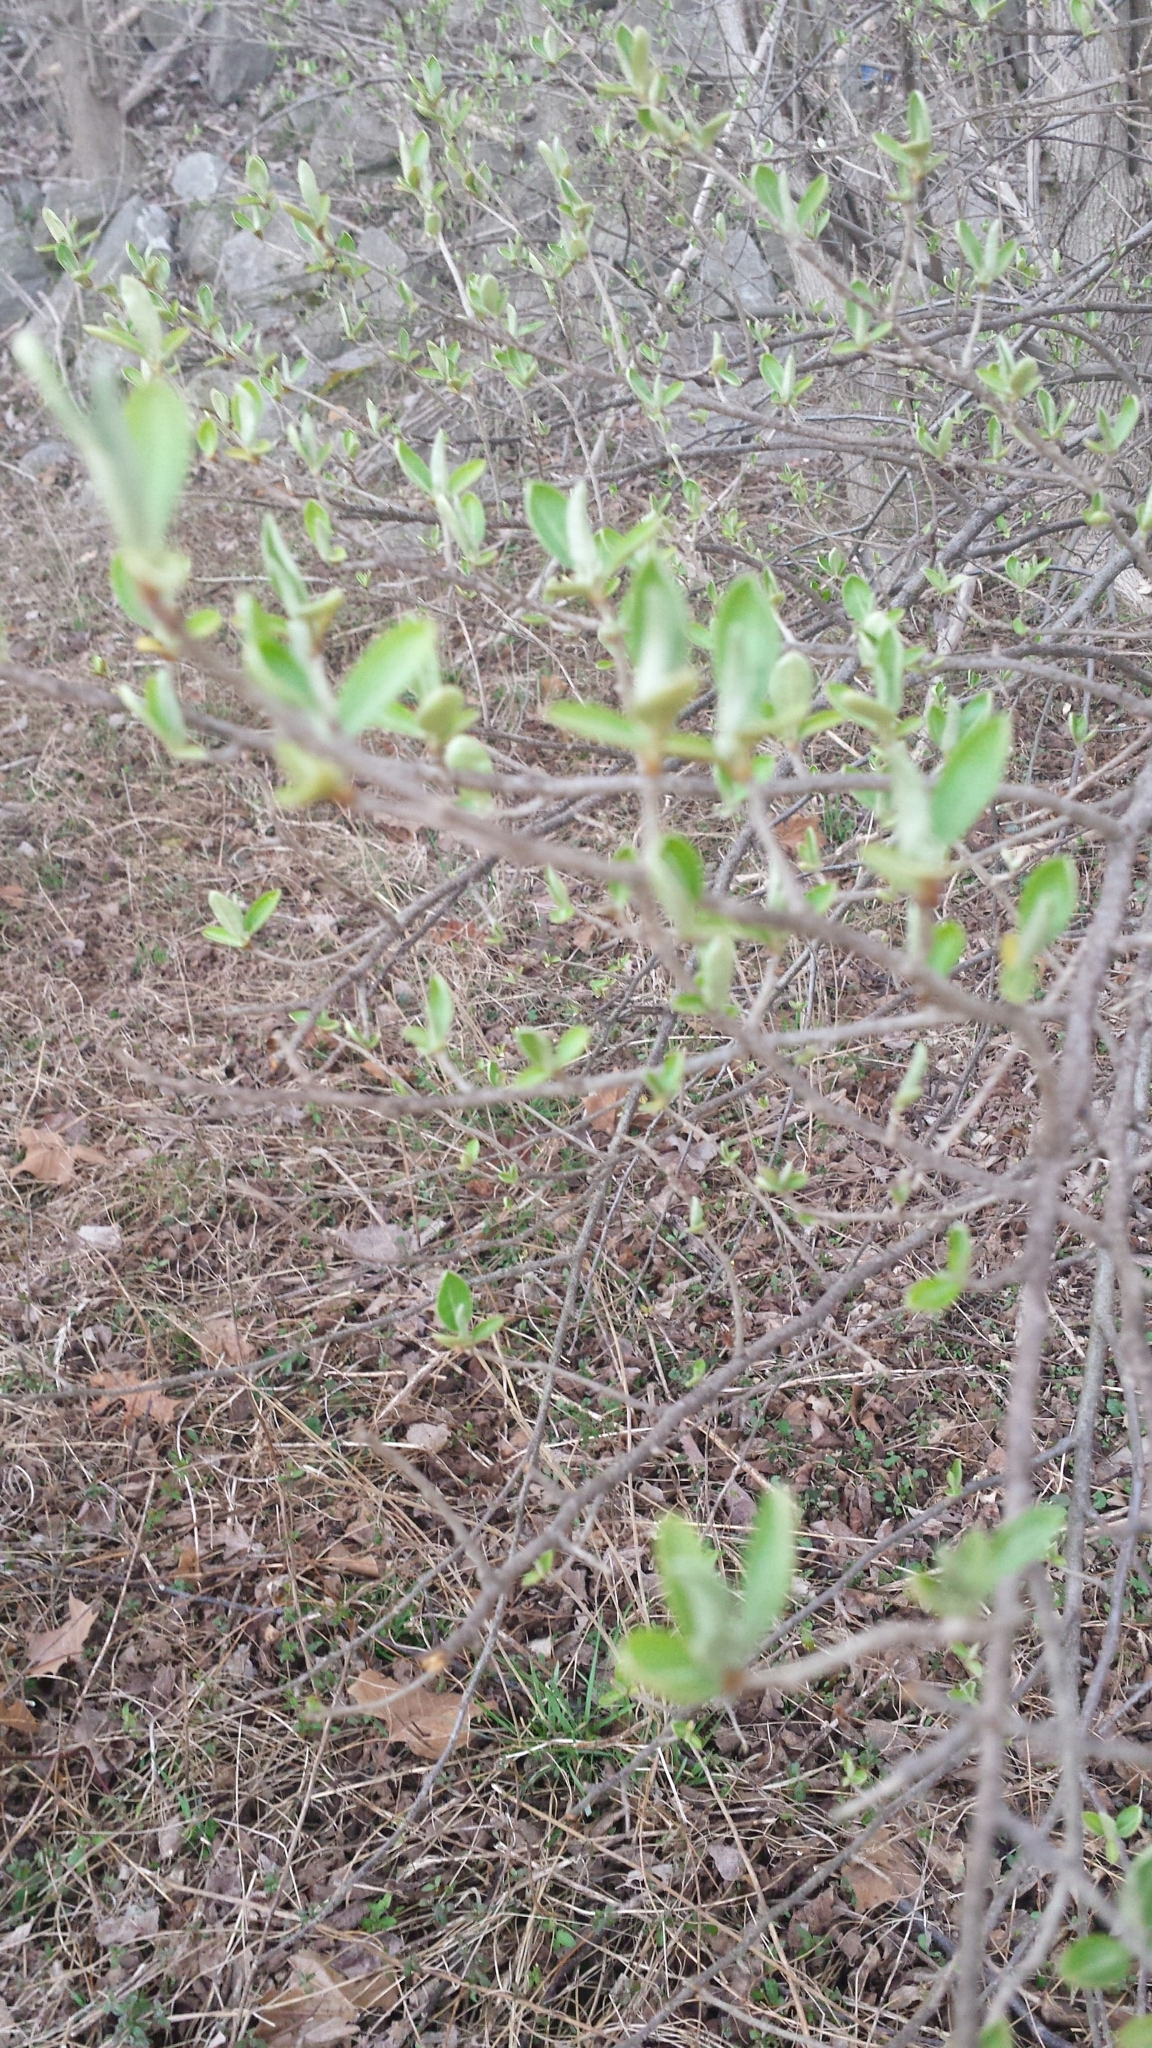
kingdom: Plantae
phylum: Tracheophyta
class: Magnoliopsida
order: Rosales
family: Elaeagnaceae
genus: Elaeagnus
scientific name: Elaeagnus umbellata
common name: Autumn olive
